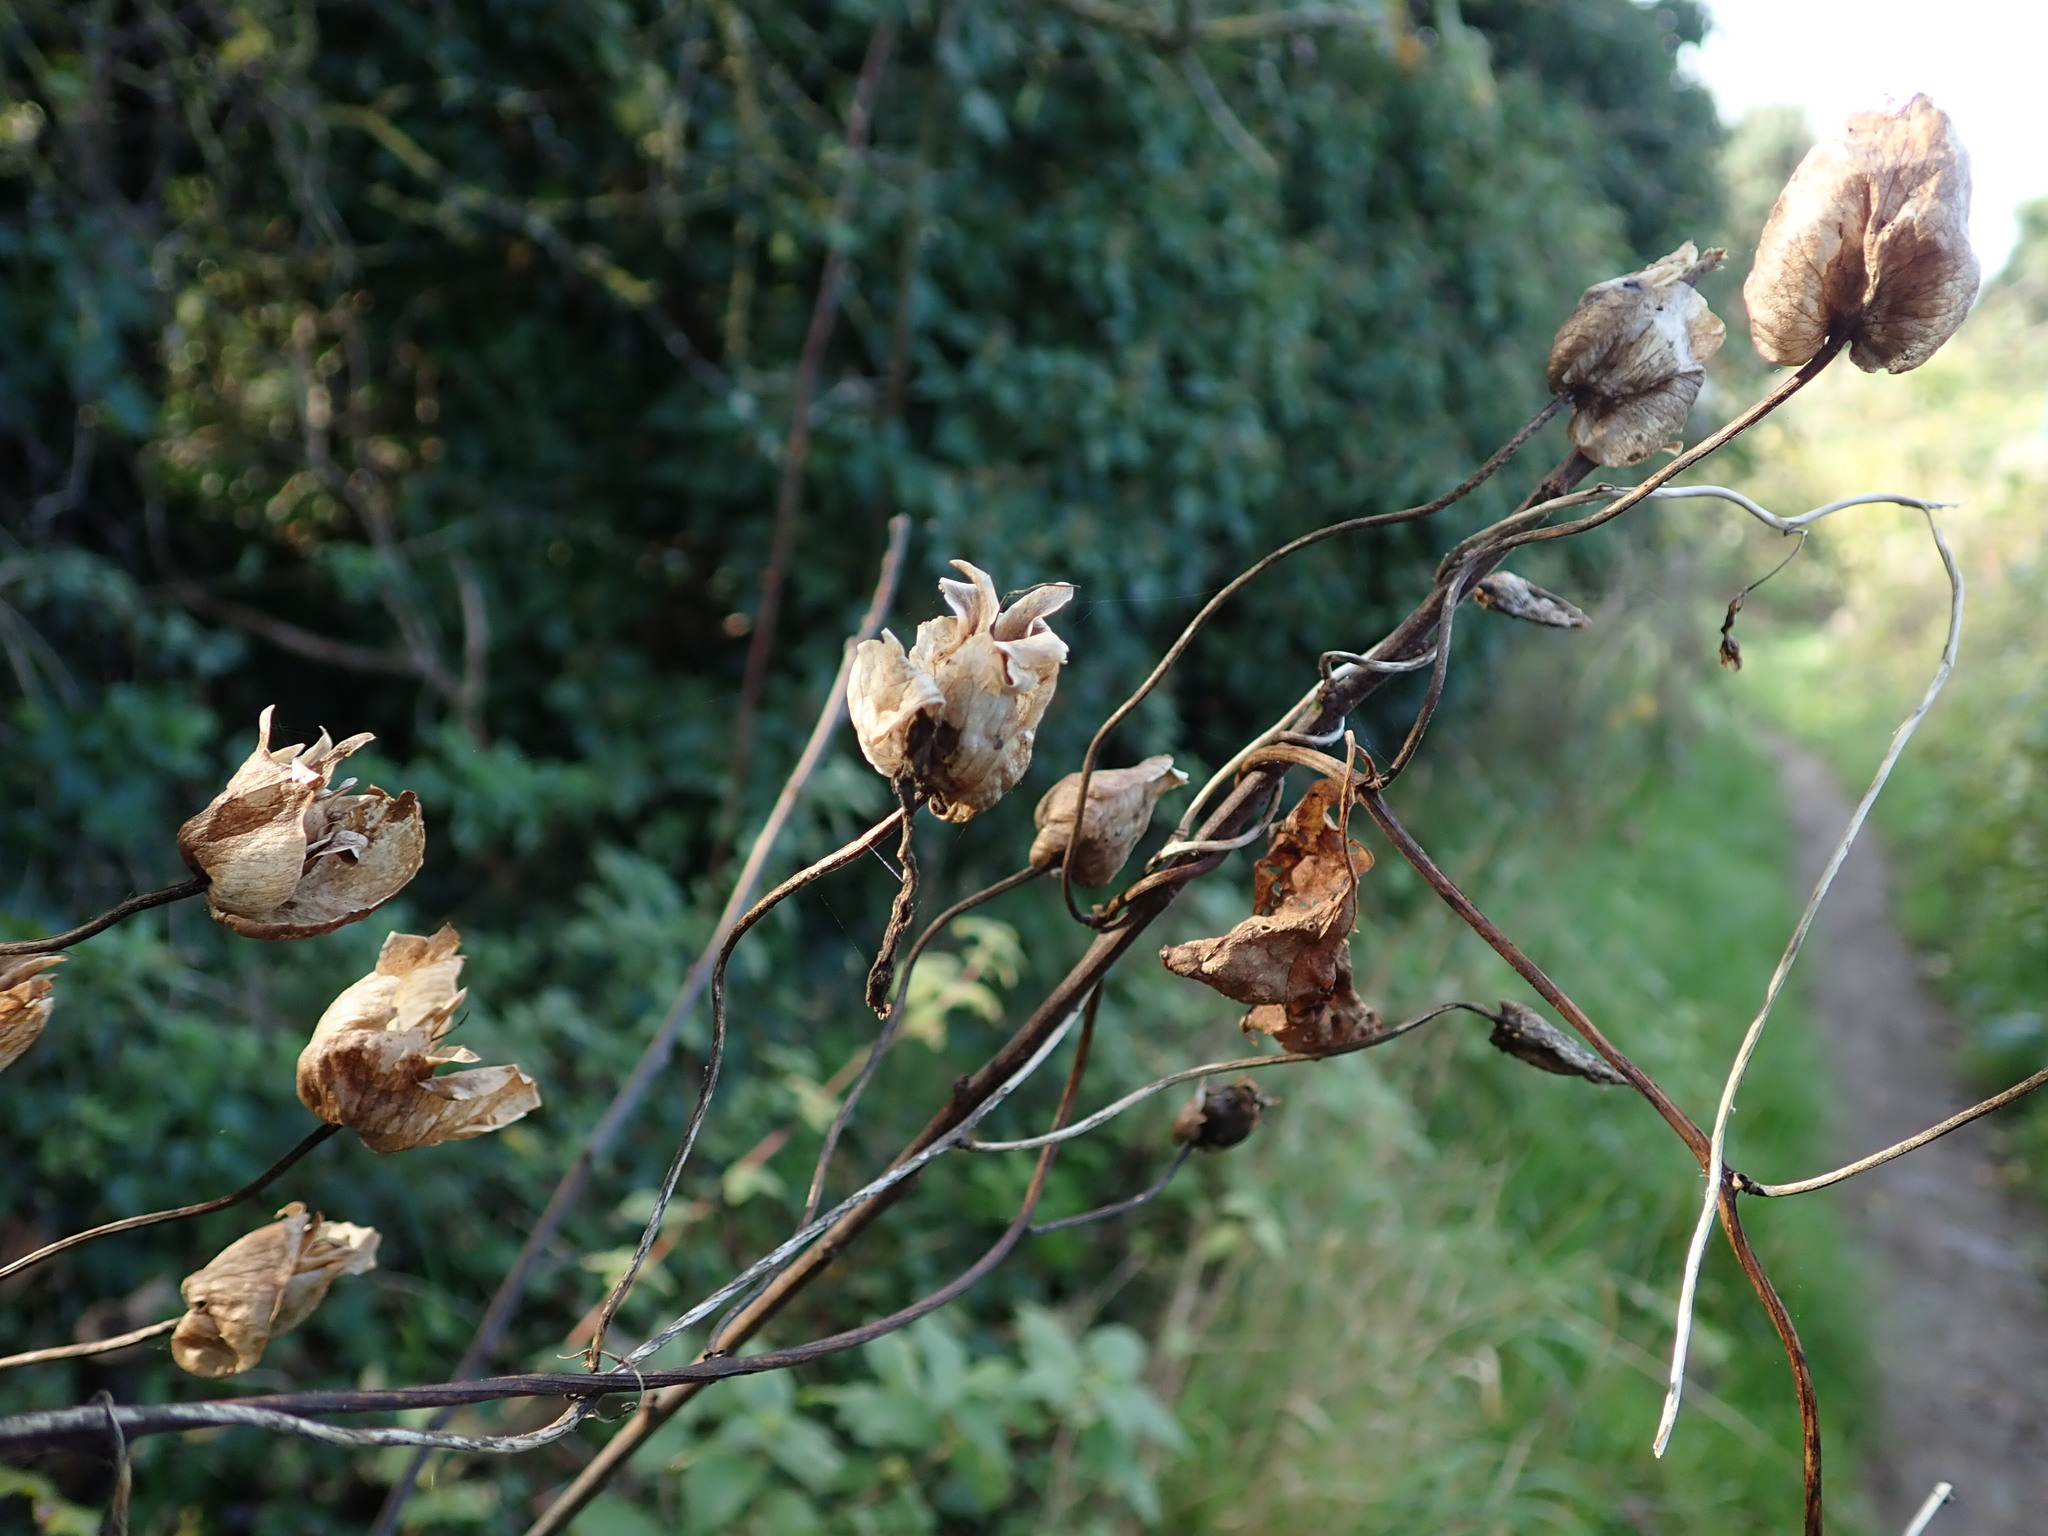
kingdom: Plantae
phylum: Tracheophyta
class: Magnoliopsida
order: Solanales
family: Convolvulaceae
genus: Calystegia
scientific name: Calystegia silvatica
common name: Large bindweed
